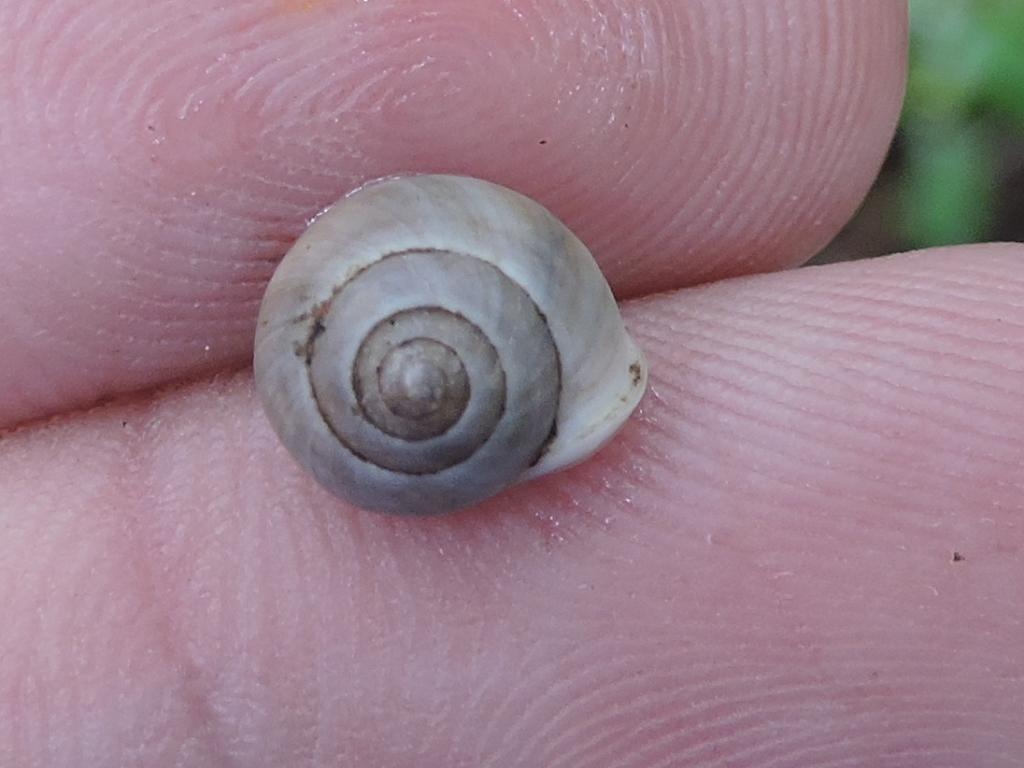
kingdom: Animalia
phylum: Mollusca
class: Gastropoda
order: Cycloneritida
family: Helicinidae
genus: Helicina
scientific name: Helicina orbiculata
